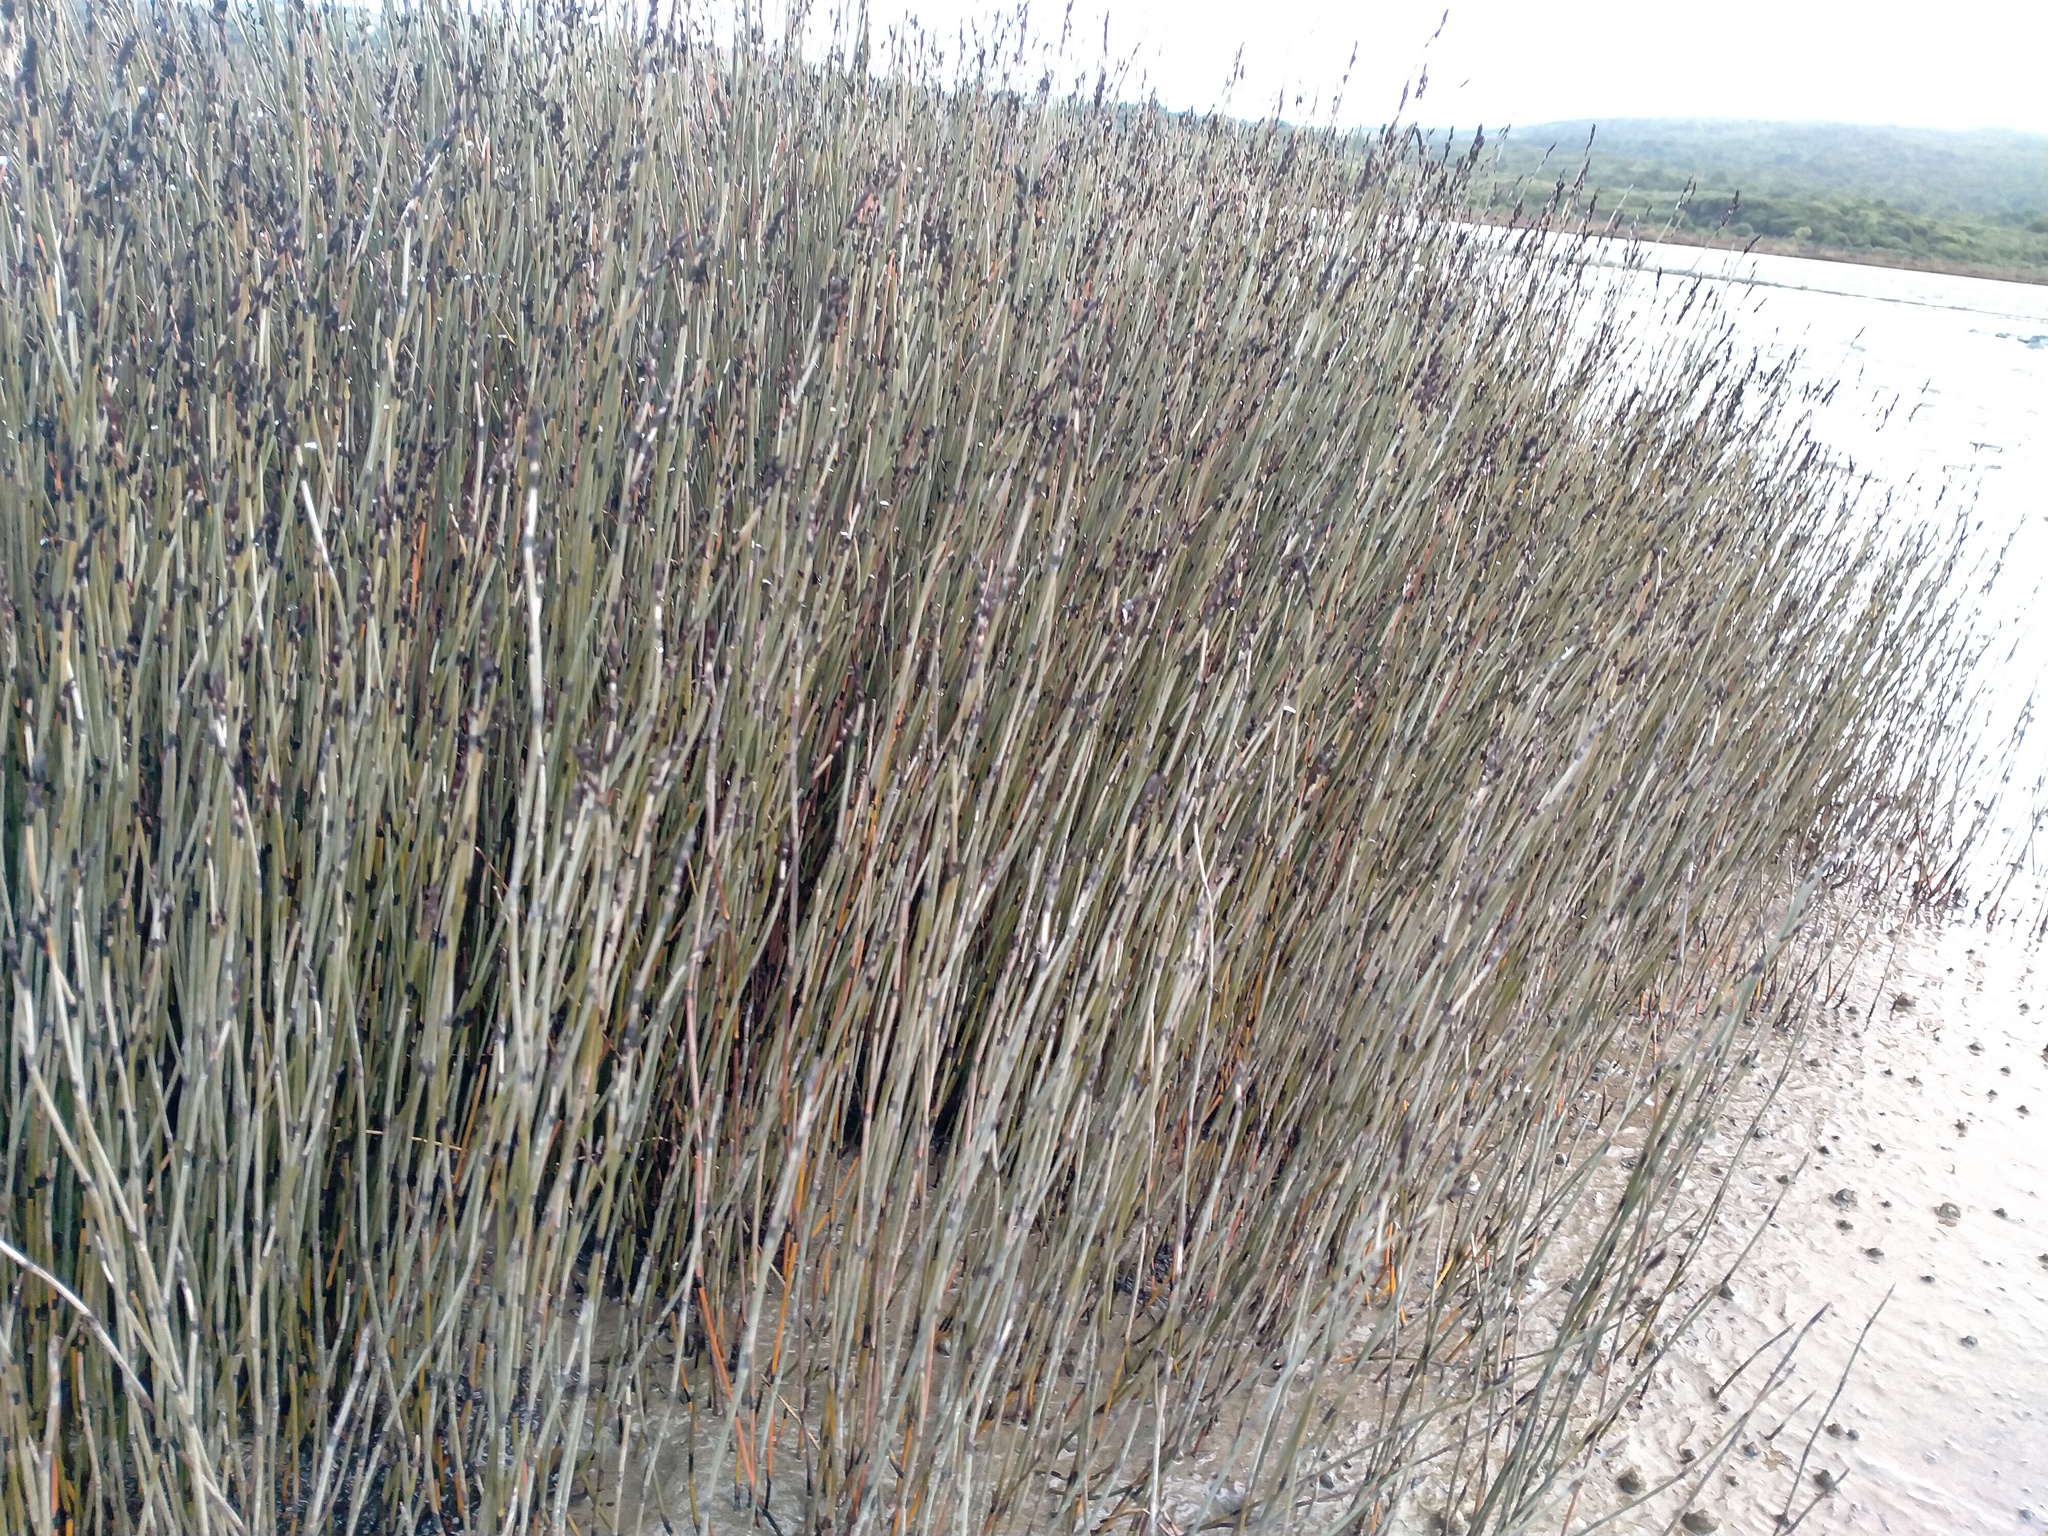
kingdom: Plantae
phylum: Tracheophyta
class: Liliopsida
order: Poales
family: Restionaceae
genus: Apodasmia
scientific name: Apodasmia similis
